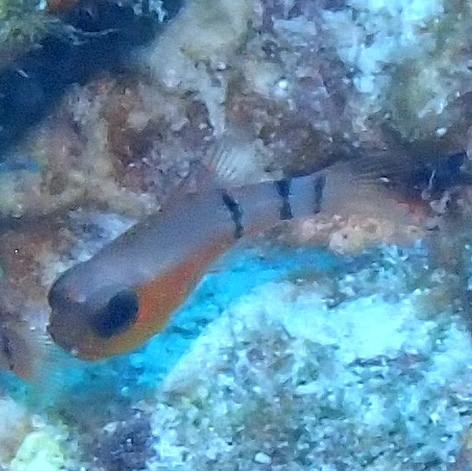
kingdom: Animalia
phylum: Chordata
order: Perciformes
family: Apogonidae
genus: Apogon
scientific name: Apogon townsendi
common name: Belted cardinalfish
